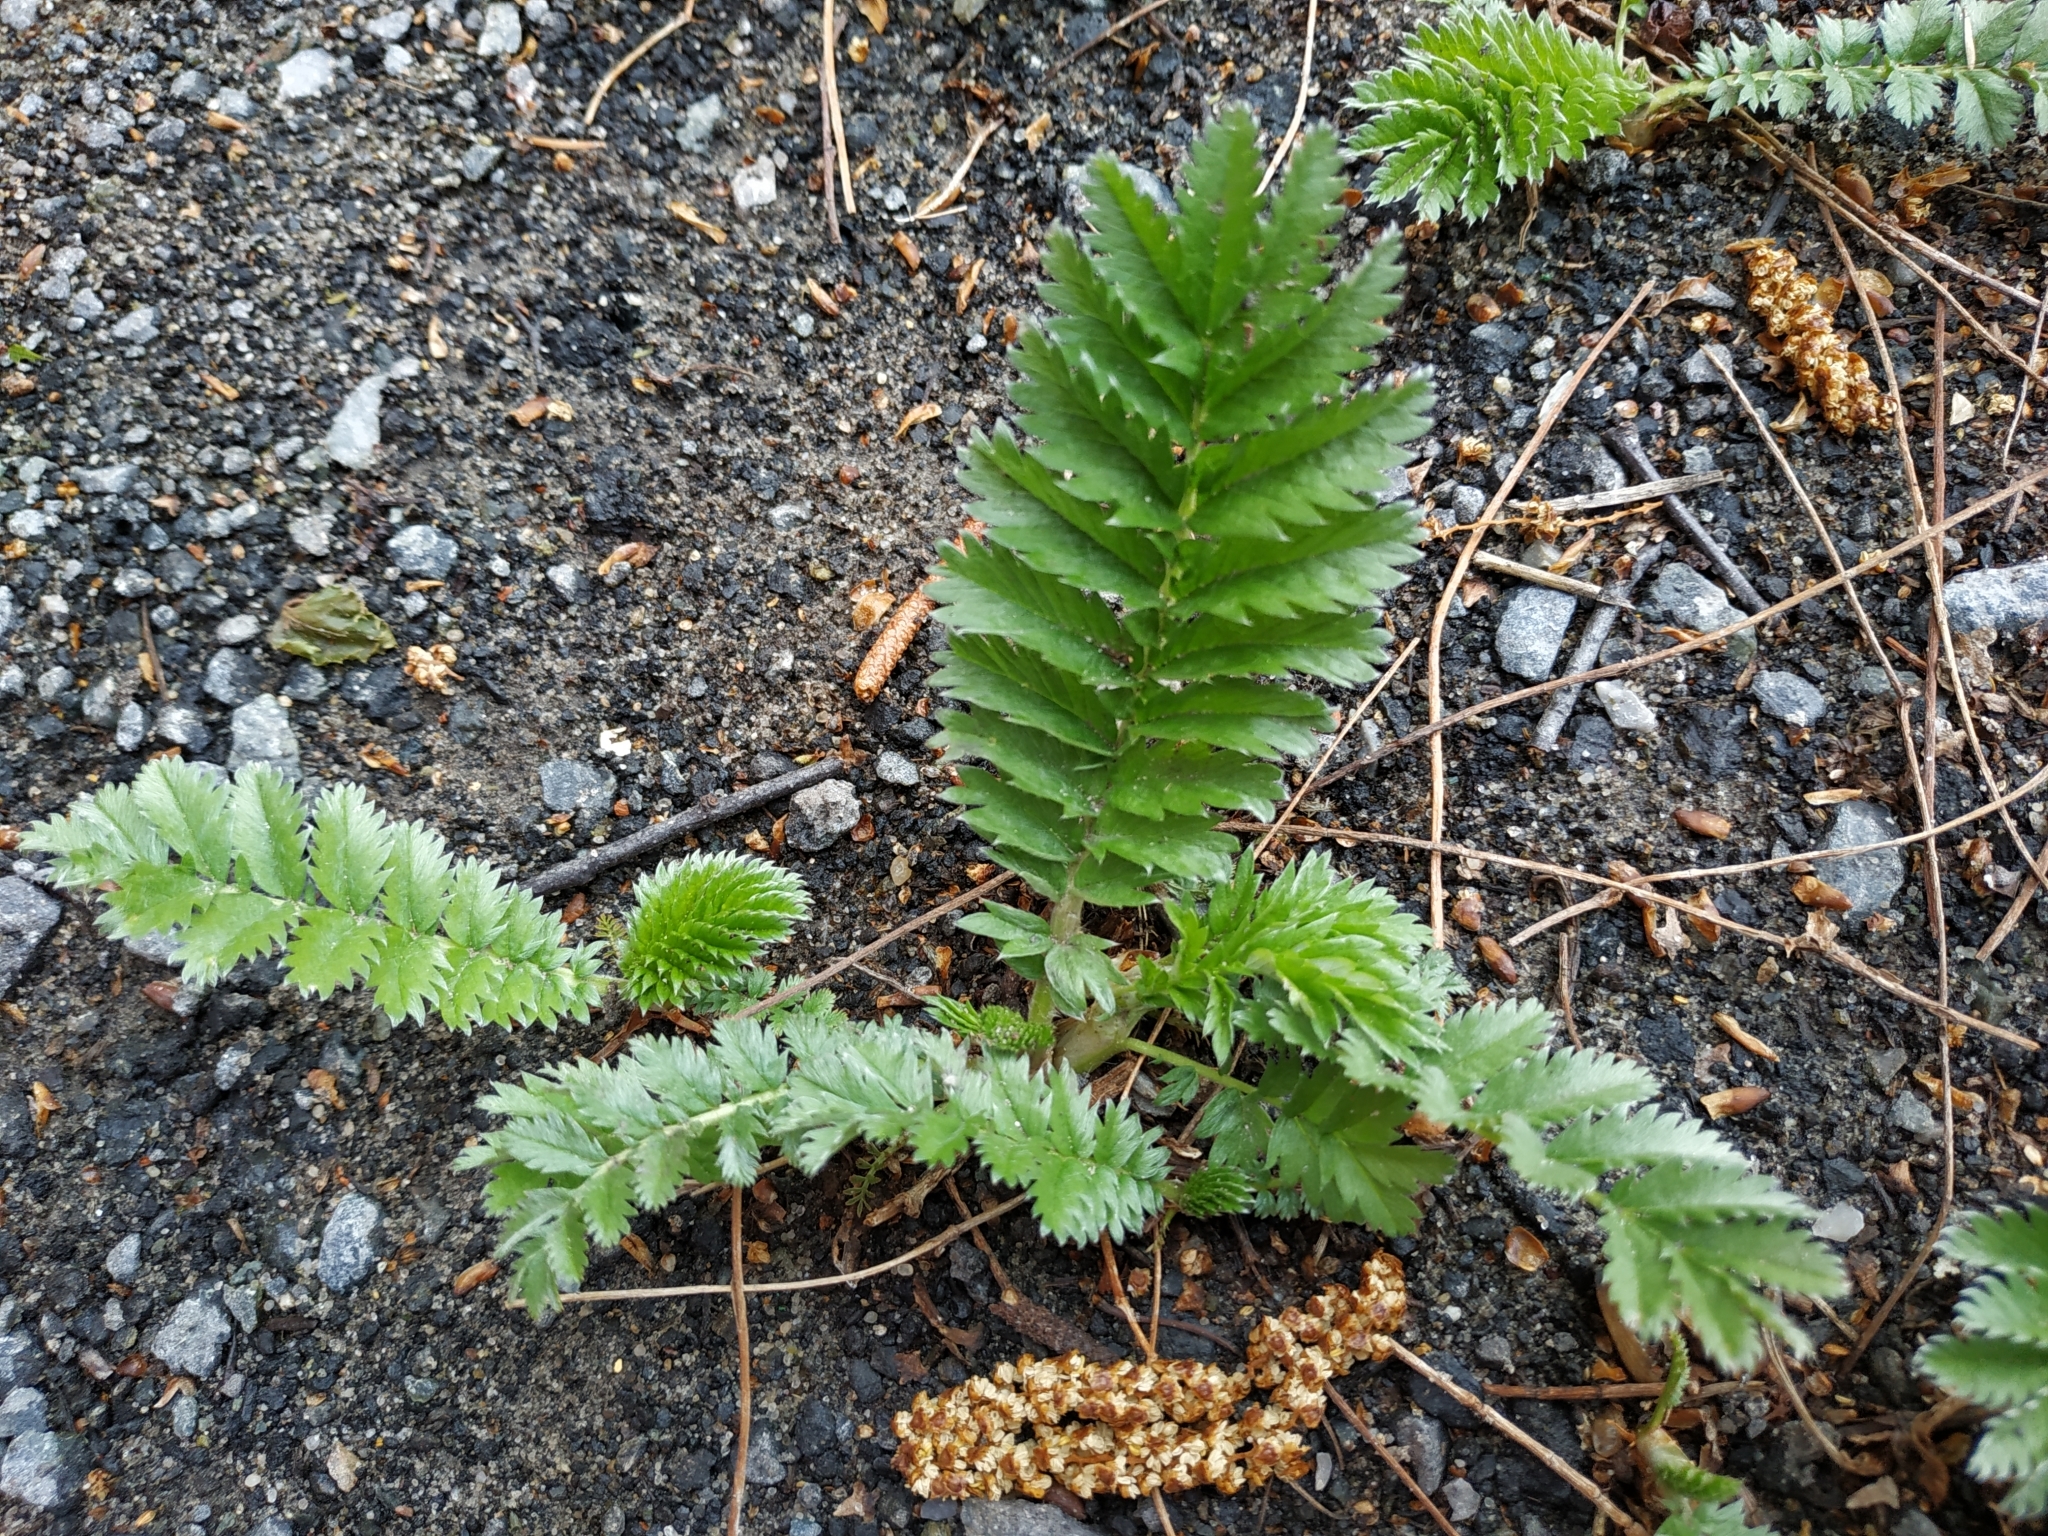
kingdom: Plantae
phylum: Tracheophyta
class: Magnoliopsida
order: Rosales
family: Rosaceae
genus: Argentina
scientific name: Argentina anserina
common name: Common silverweed
